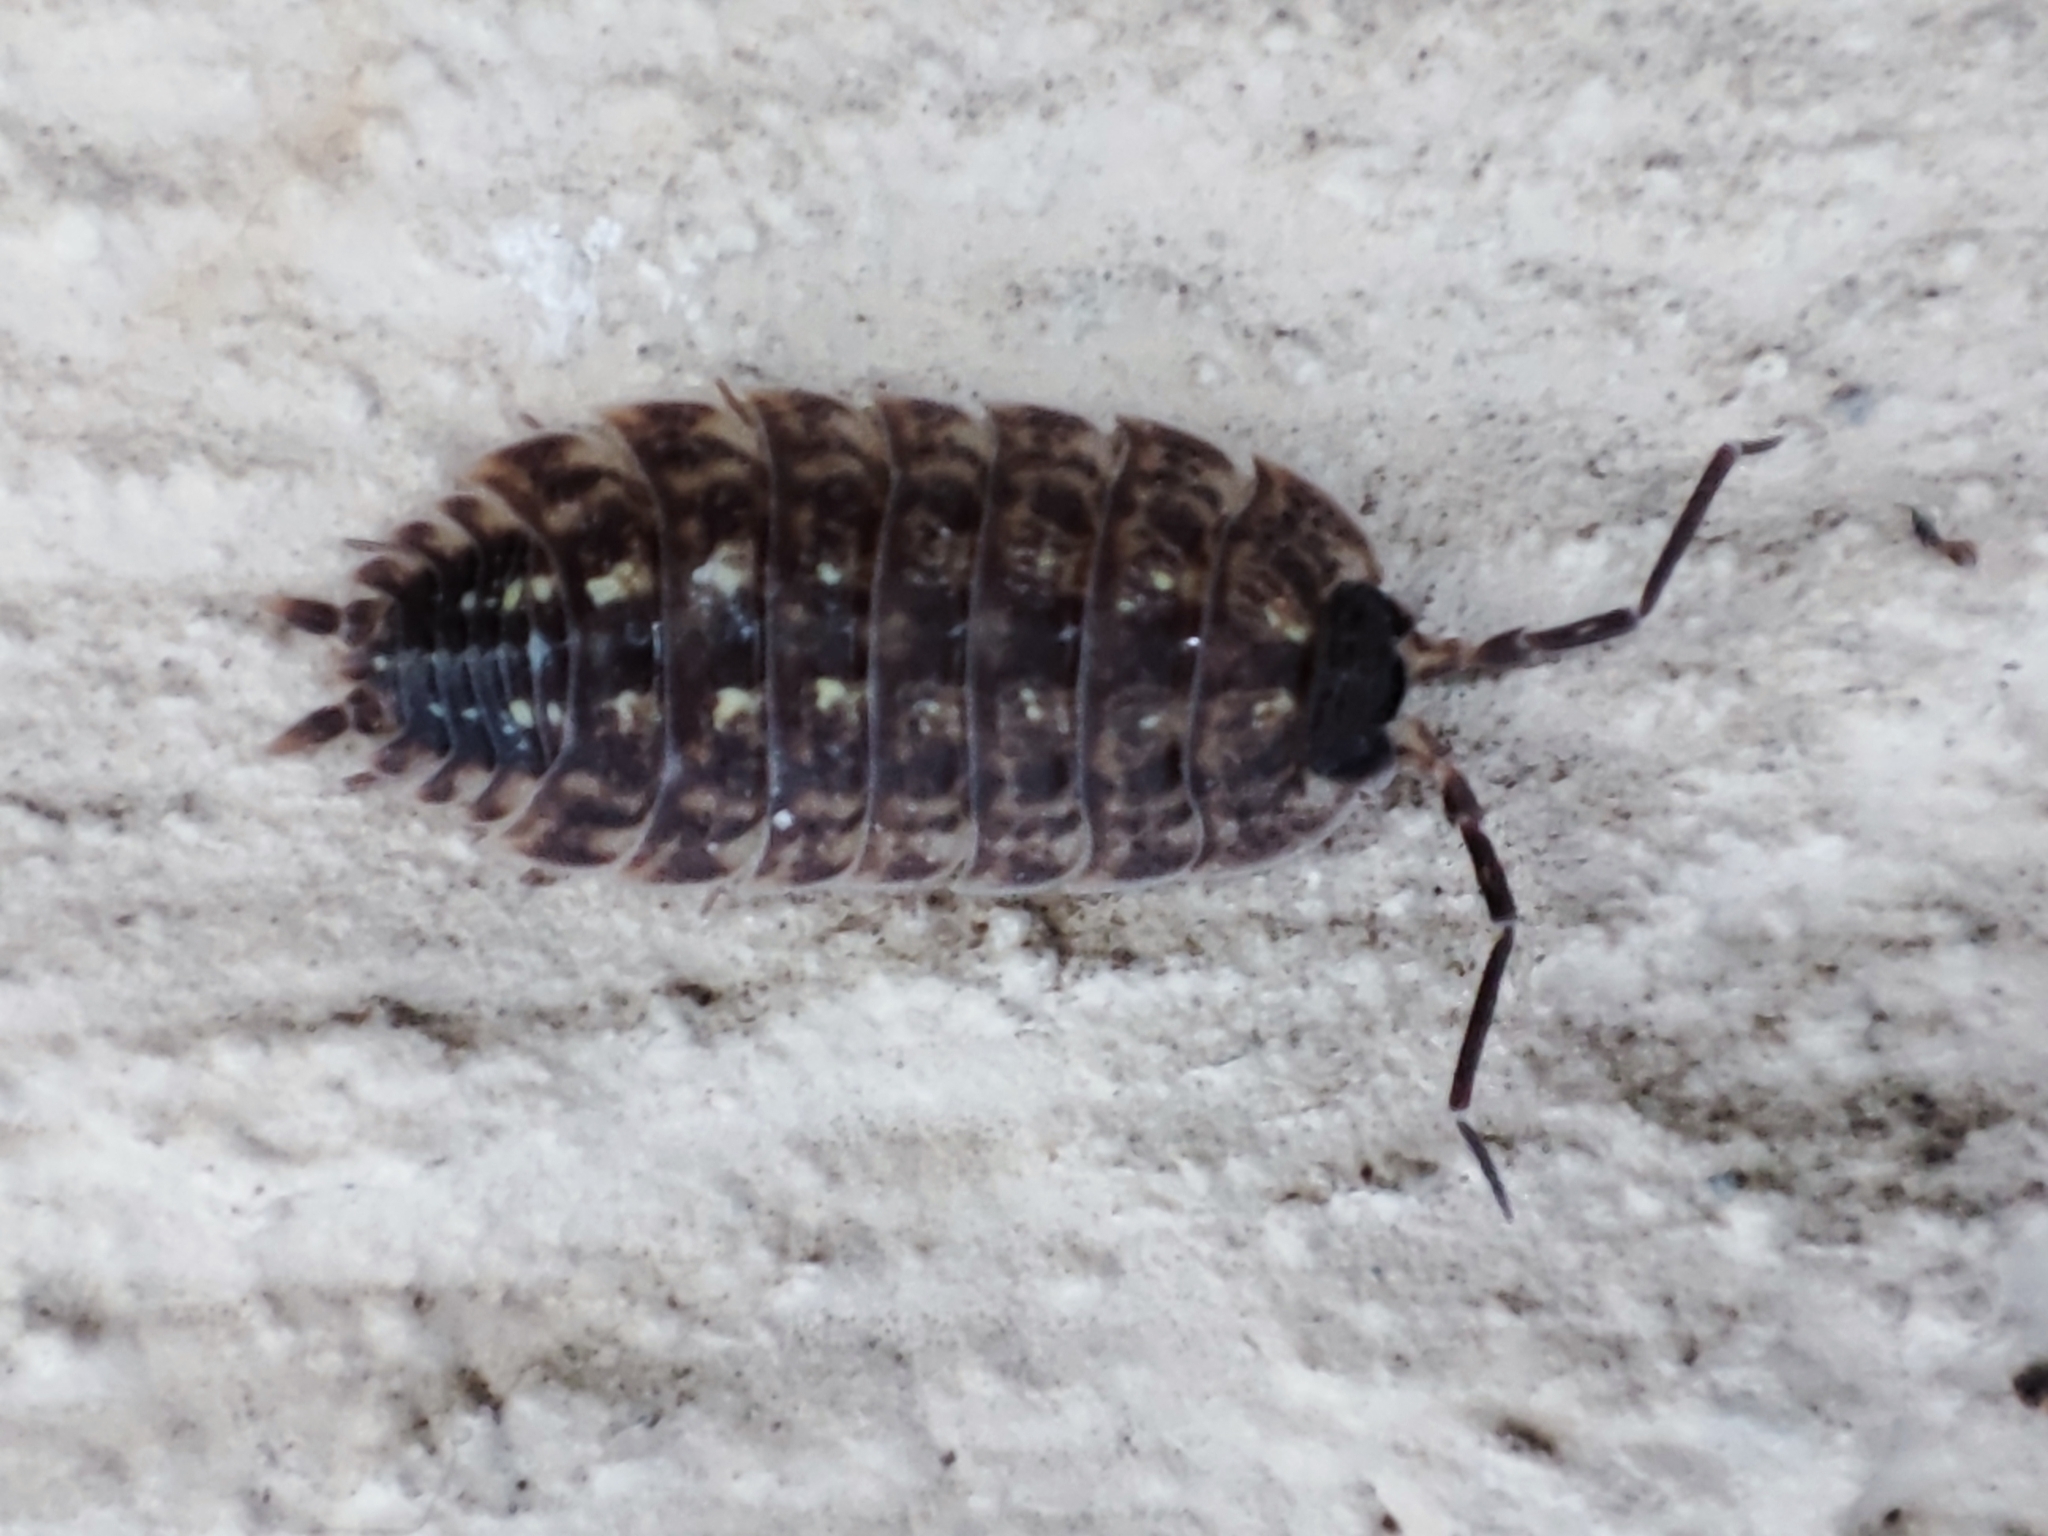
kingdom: Animalia
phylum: Arthropoda
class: Malacostraca
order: Isopoda
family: Porcellionidae
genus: Porcellio
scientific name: Porcellio spinicornis
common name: Painted woodlouse
